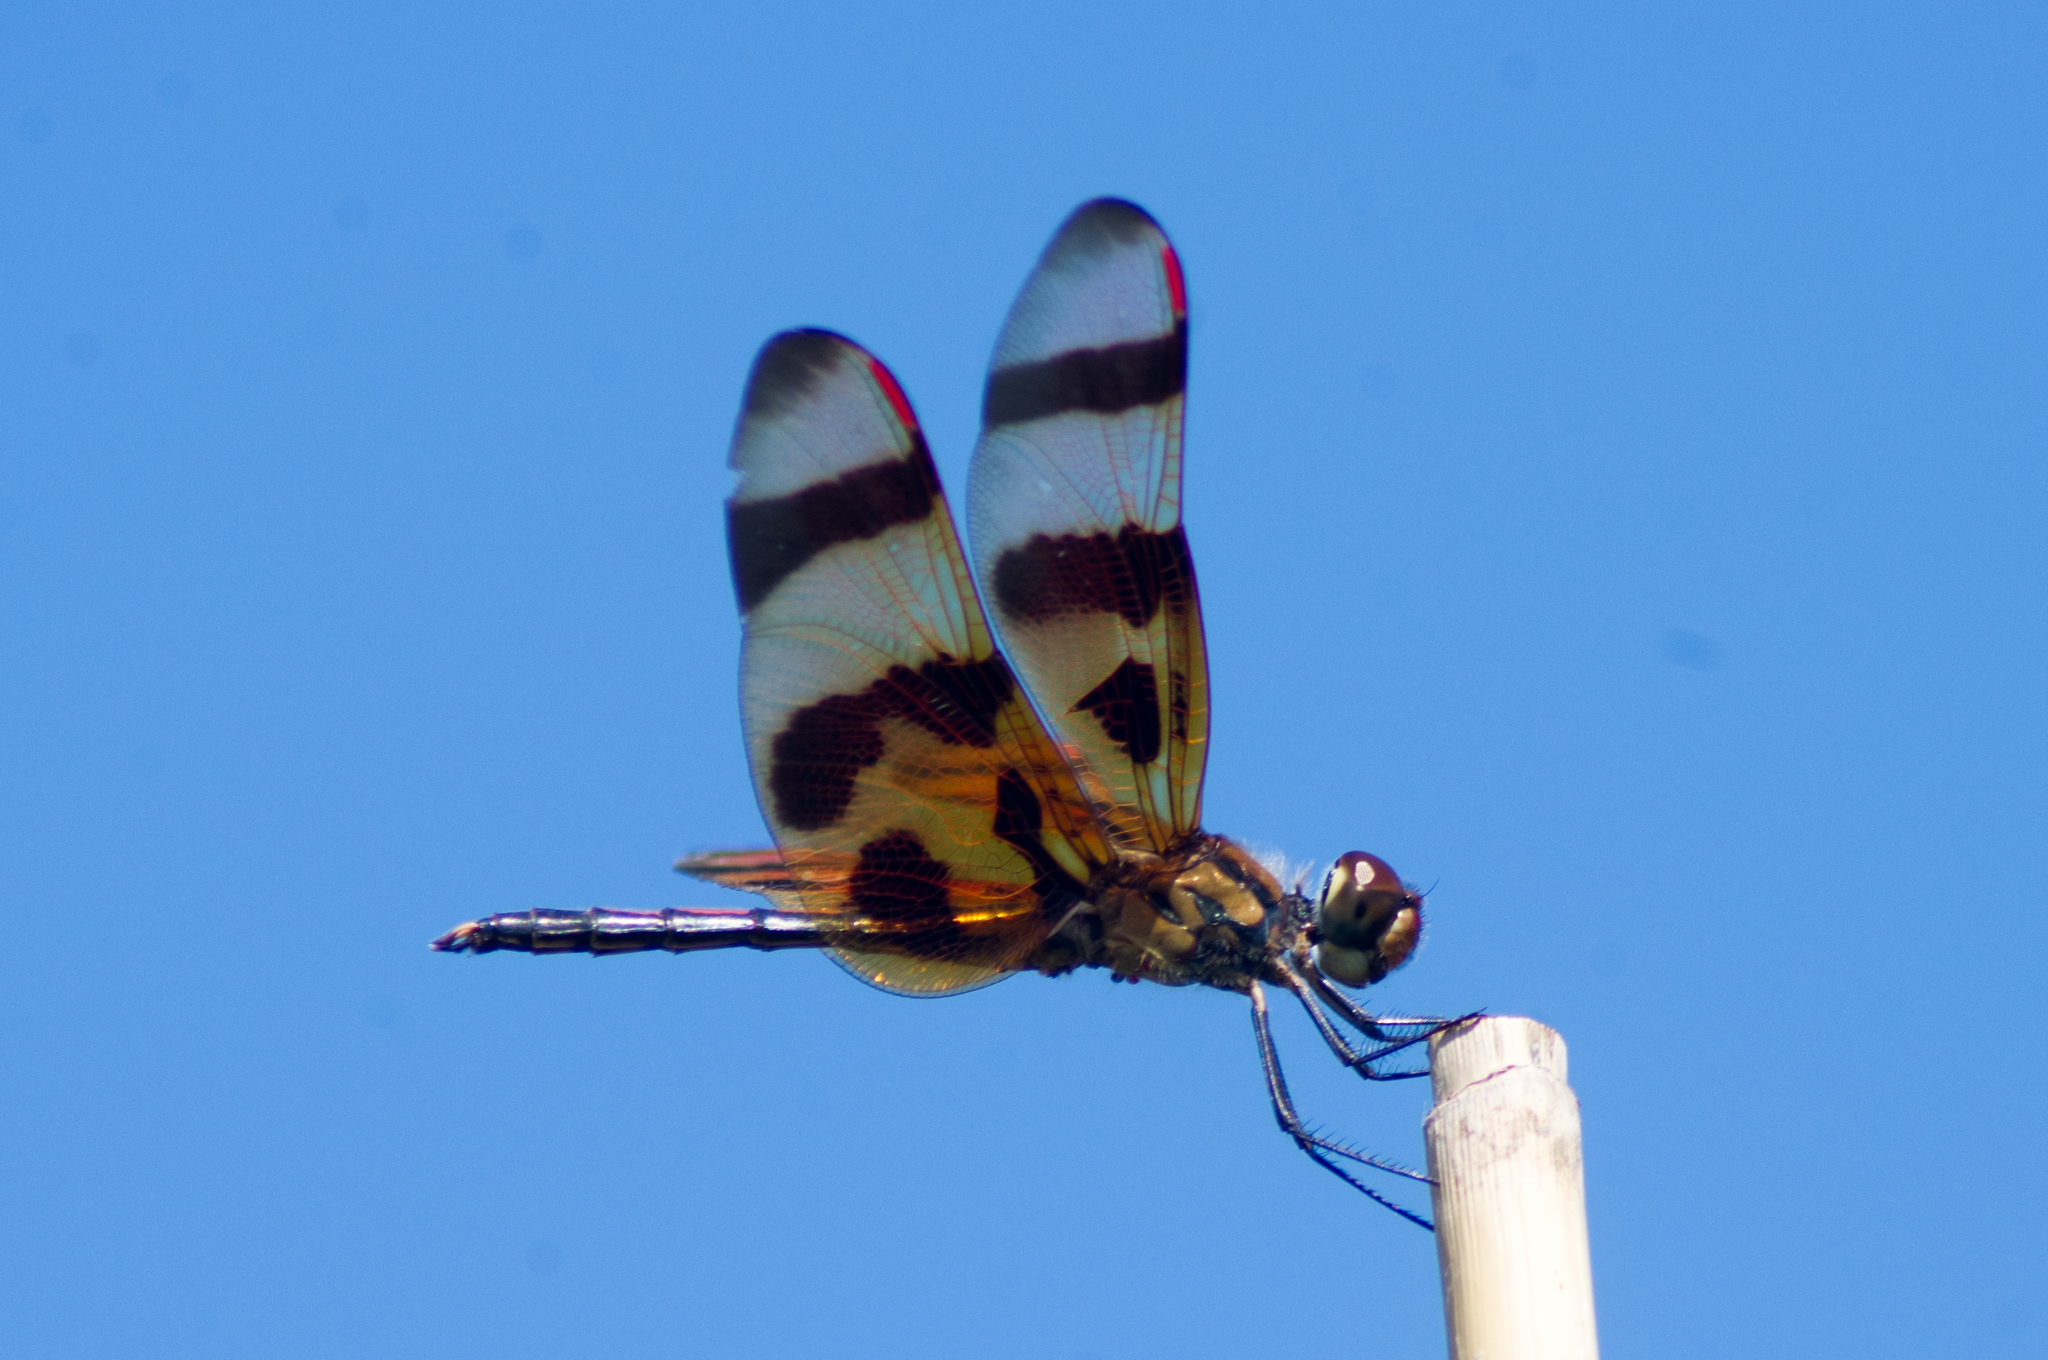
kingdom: Animalia
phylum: Arthropoda
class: Insecta
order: Odonata
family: Libellulidae
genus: Celithemis
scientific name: Celithemis eponina
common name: Halloween pennant
